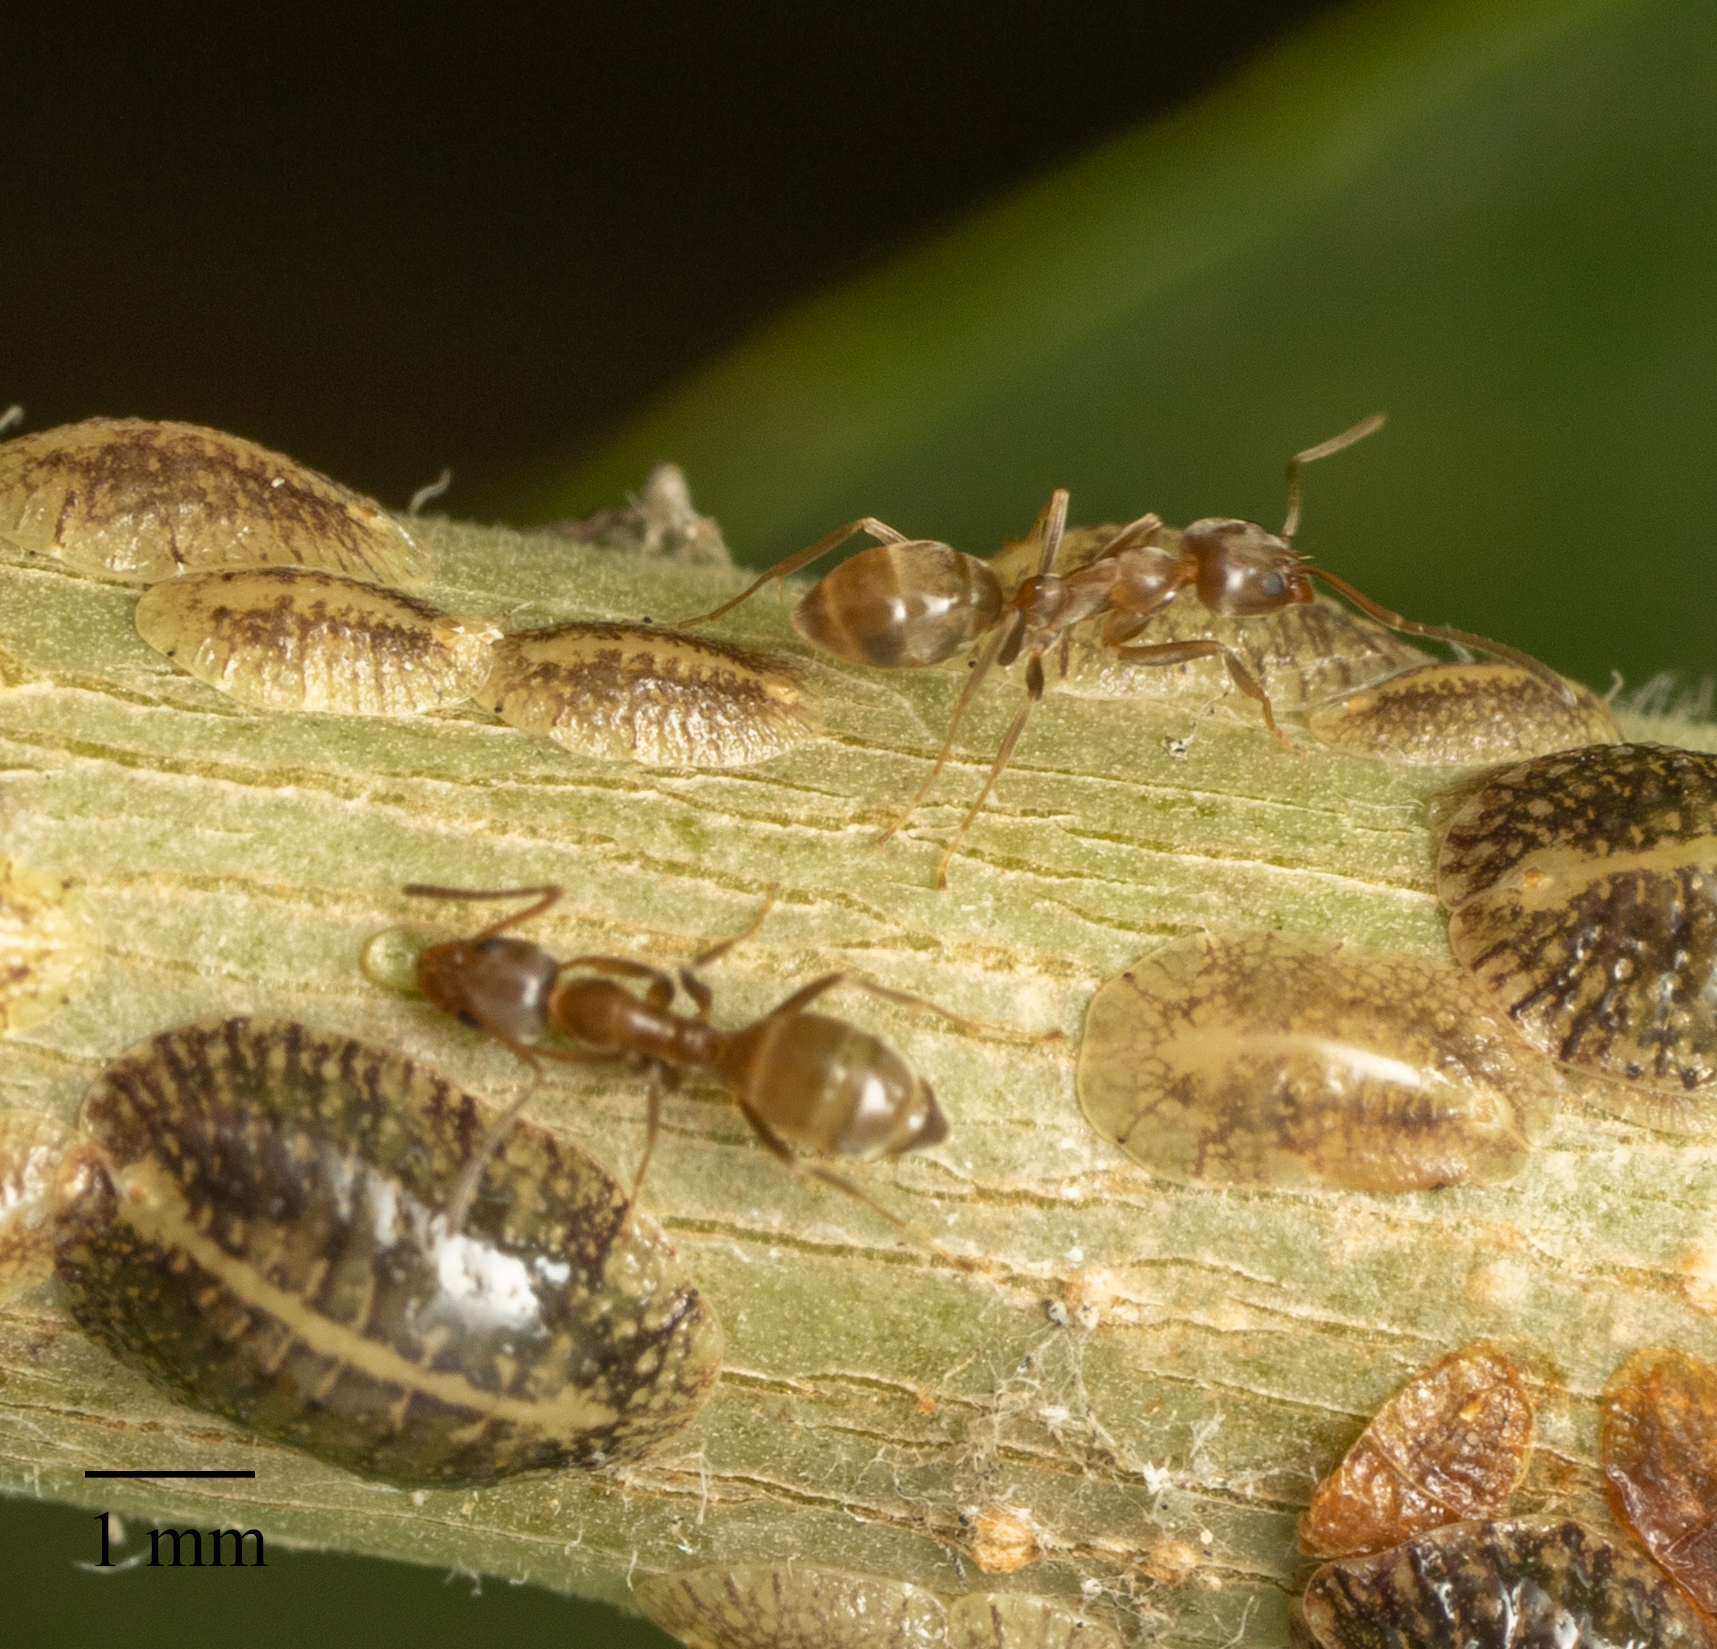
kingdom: Animalia
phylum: Arthropoda
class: Insecta
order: Hymenoptera
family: Formicidae
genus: Linepithema
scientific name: Linepithema humile
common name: Argentine ant
